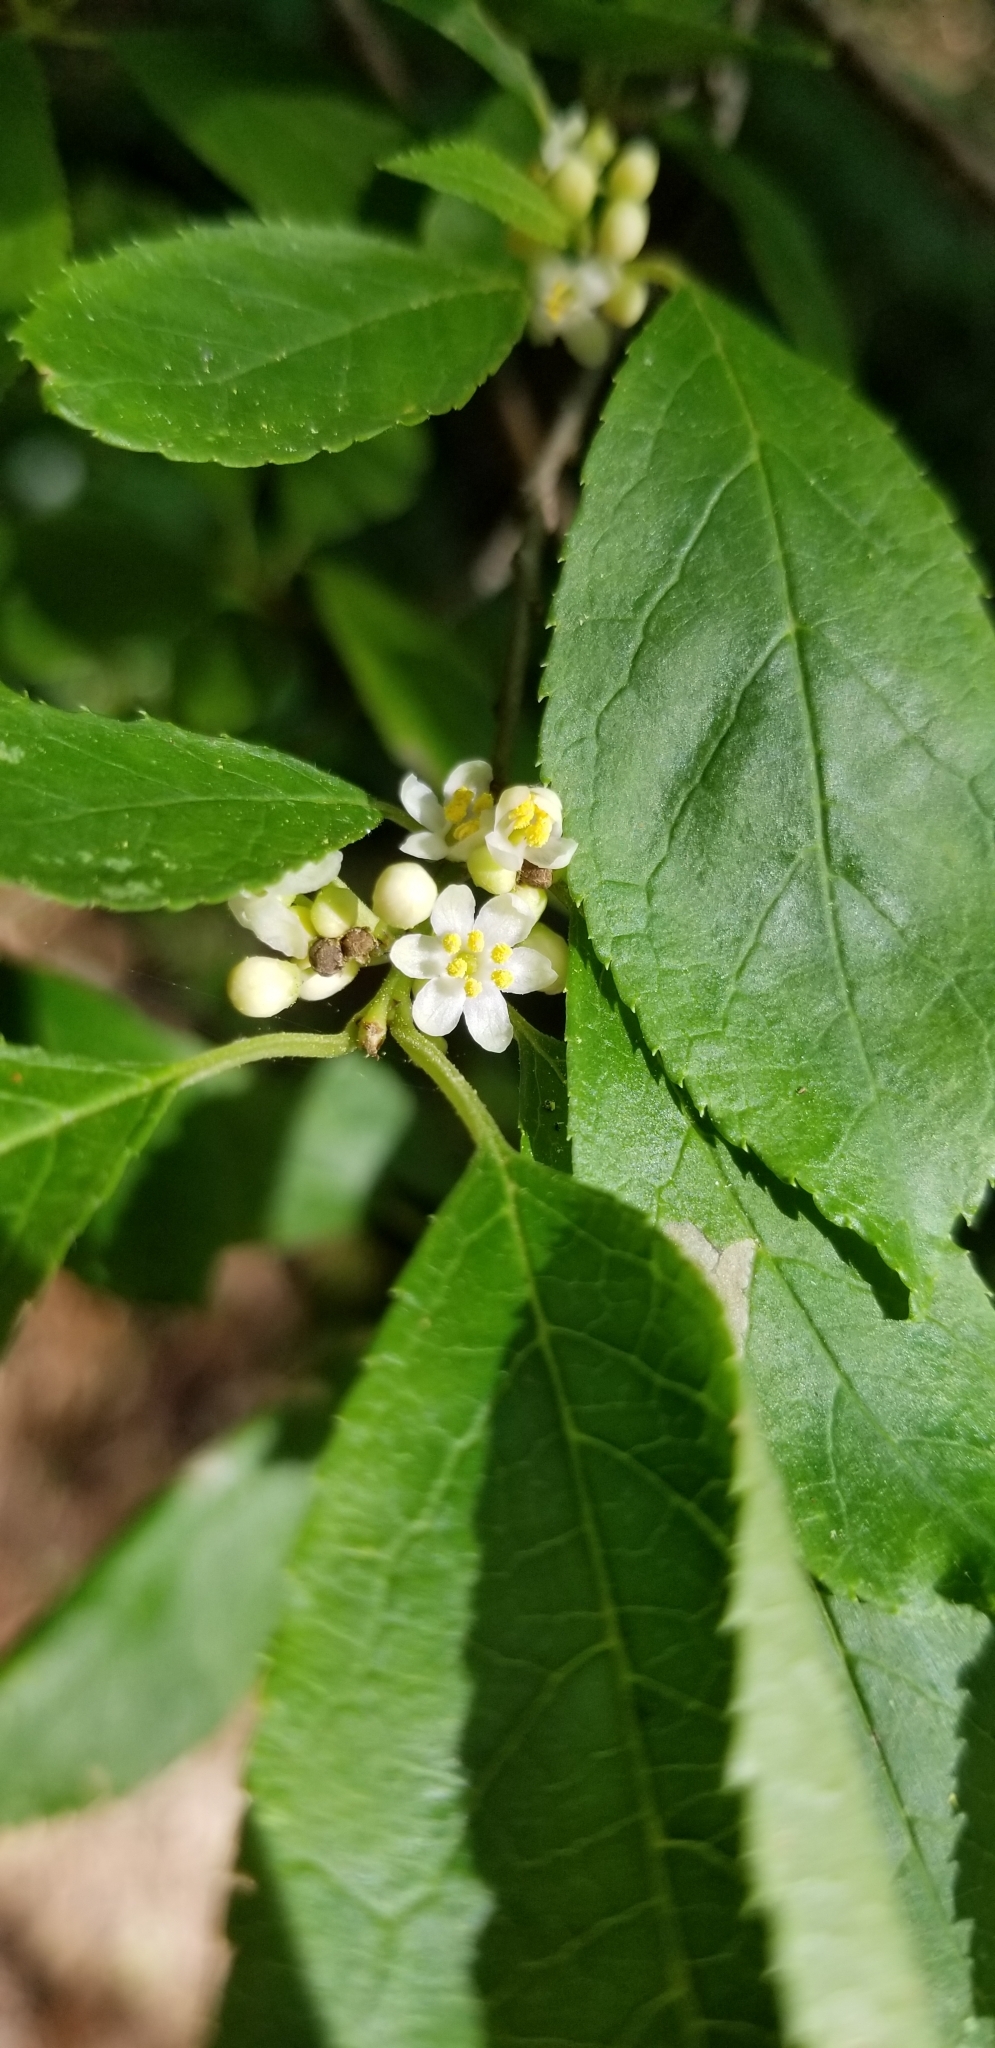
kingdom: Plantae
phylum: Tracheophyta
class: Magnoliopsida
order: Aquifoliales
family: Aquifoliaceae
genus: Ilex
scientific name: Ilex verticillata
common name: Virginia winterberry
